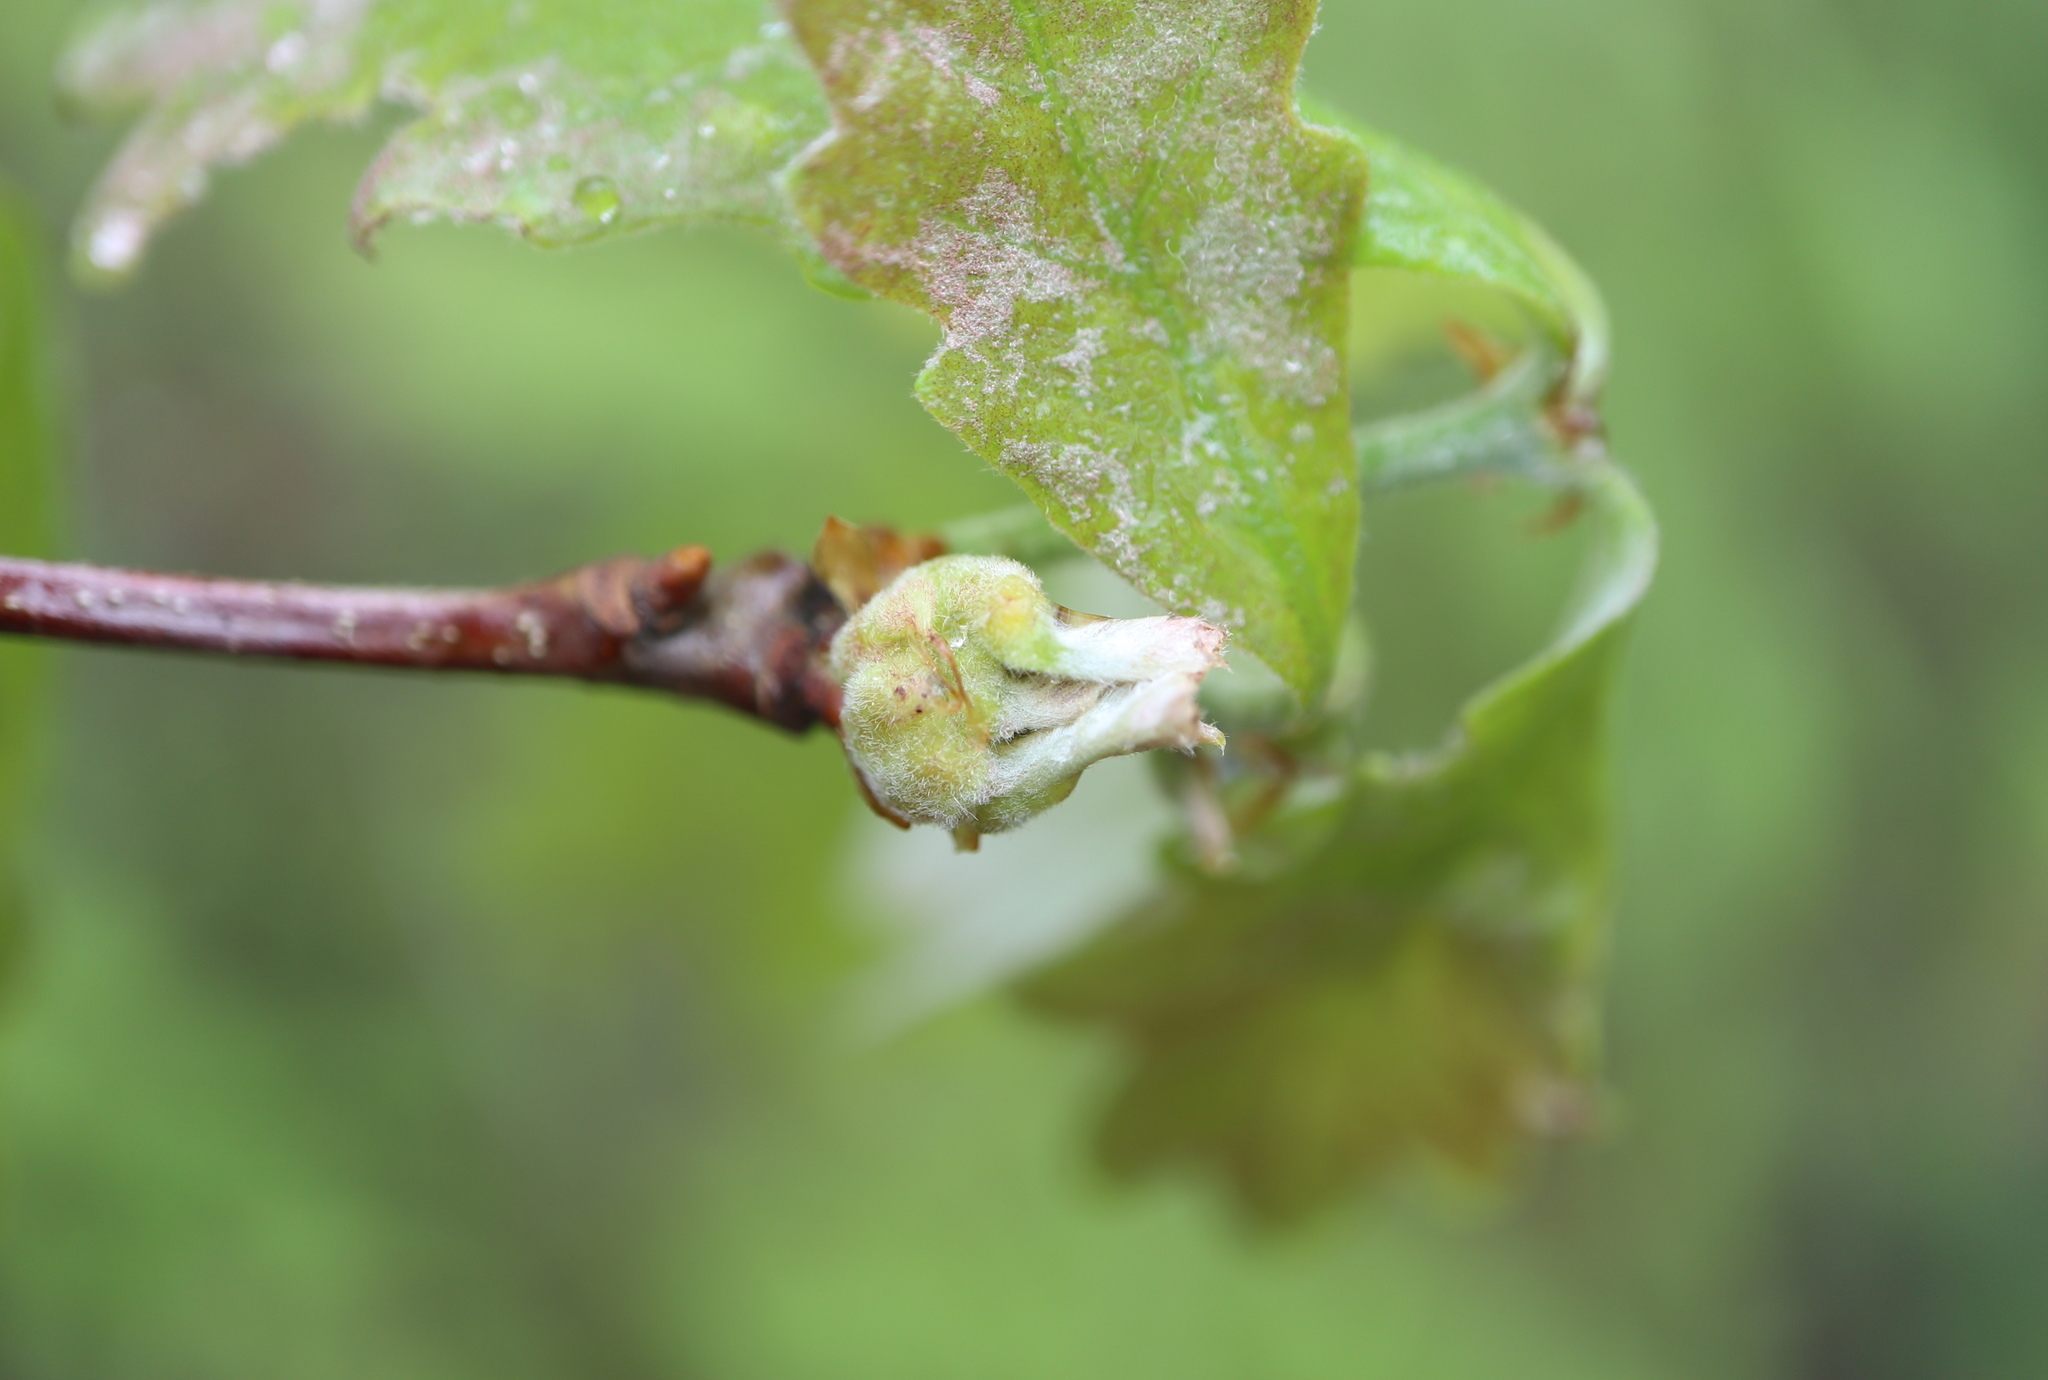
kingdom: Animalia
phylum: Arthropoda
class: Insecta
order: Hymenoptera
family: Cynipidae
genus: Neuroterus
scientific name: Neuroterus minutulus
